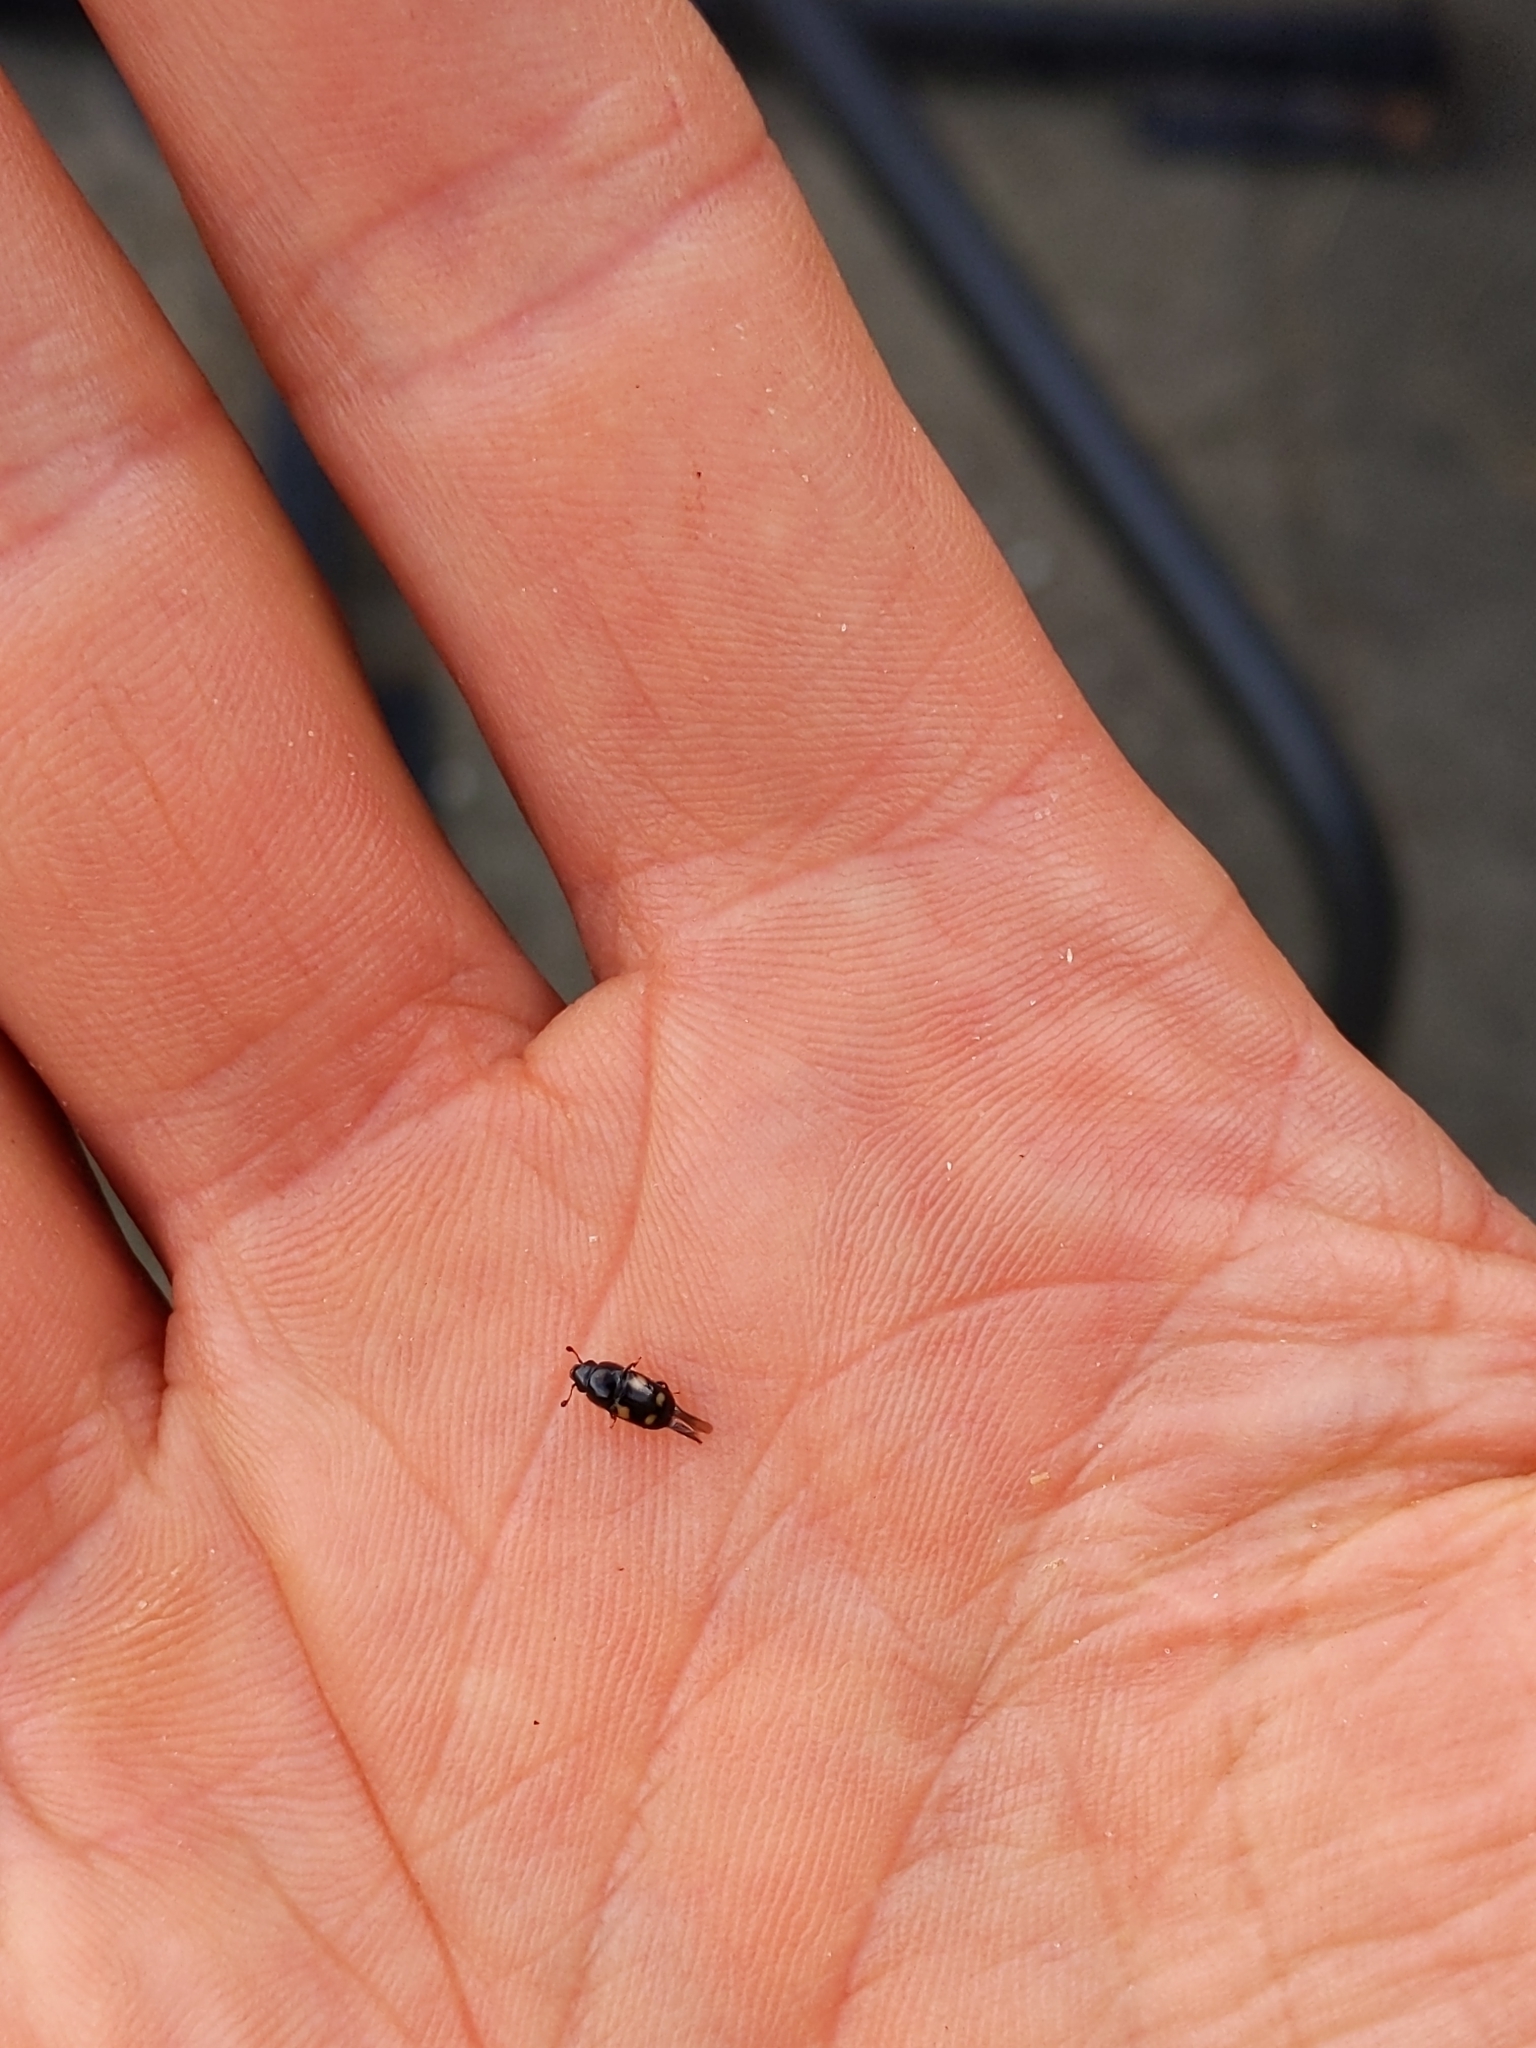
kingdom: Animalia
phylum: Arthropoda
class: Insecta
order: Coleoptera
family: Nitidulidae
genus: Glischrochilus
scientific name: Glischrochilus quadrisignatus
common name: Picnic beetle
